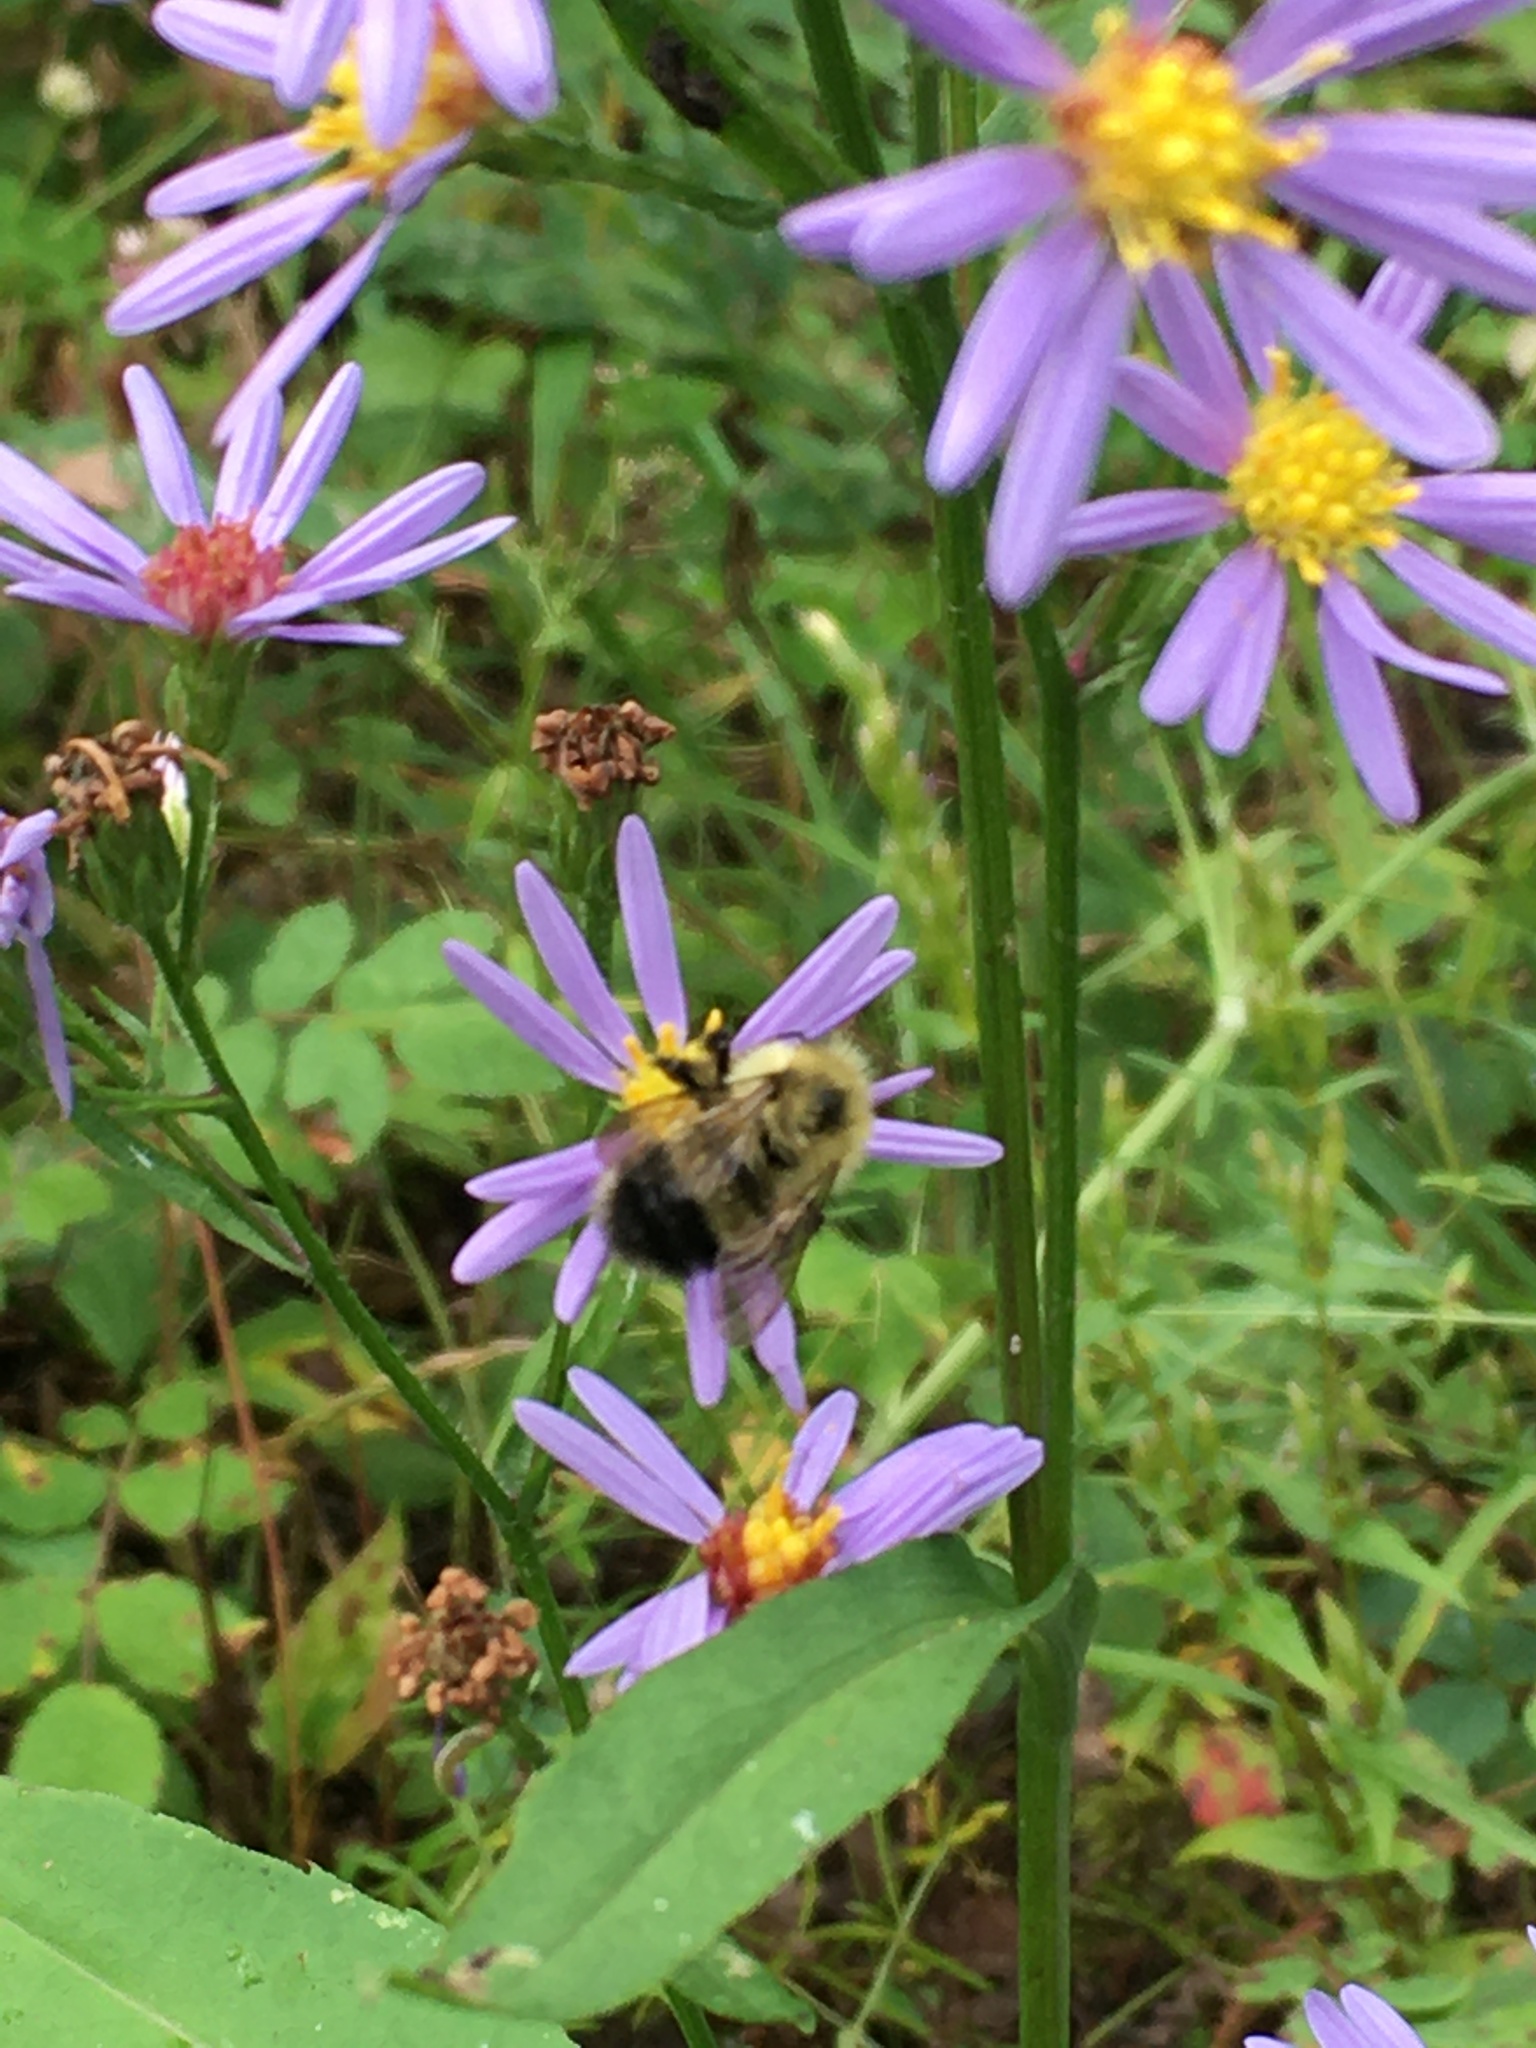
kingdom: Animalia
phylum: Arthropoda
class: Insecta
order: Hymenoptera
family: Apidae
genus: Bombus
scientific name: Bombus vagans
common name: Half-black bumble bee
